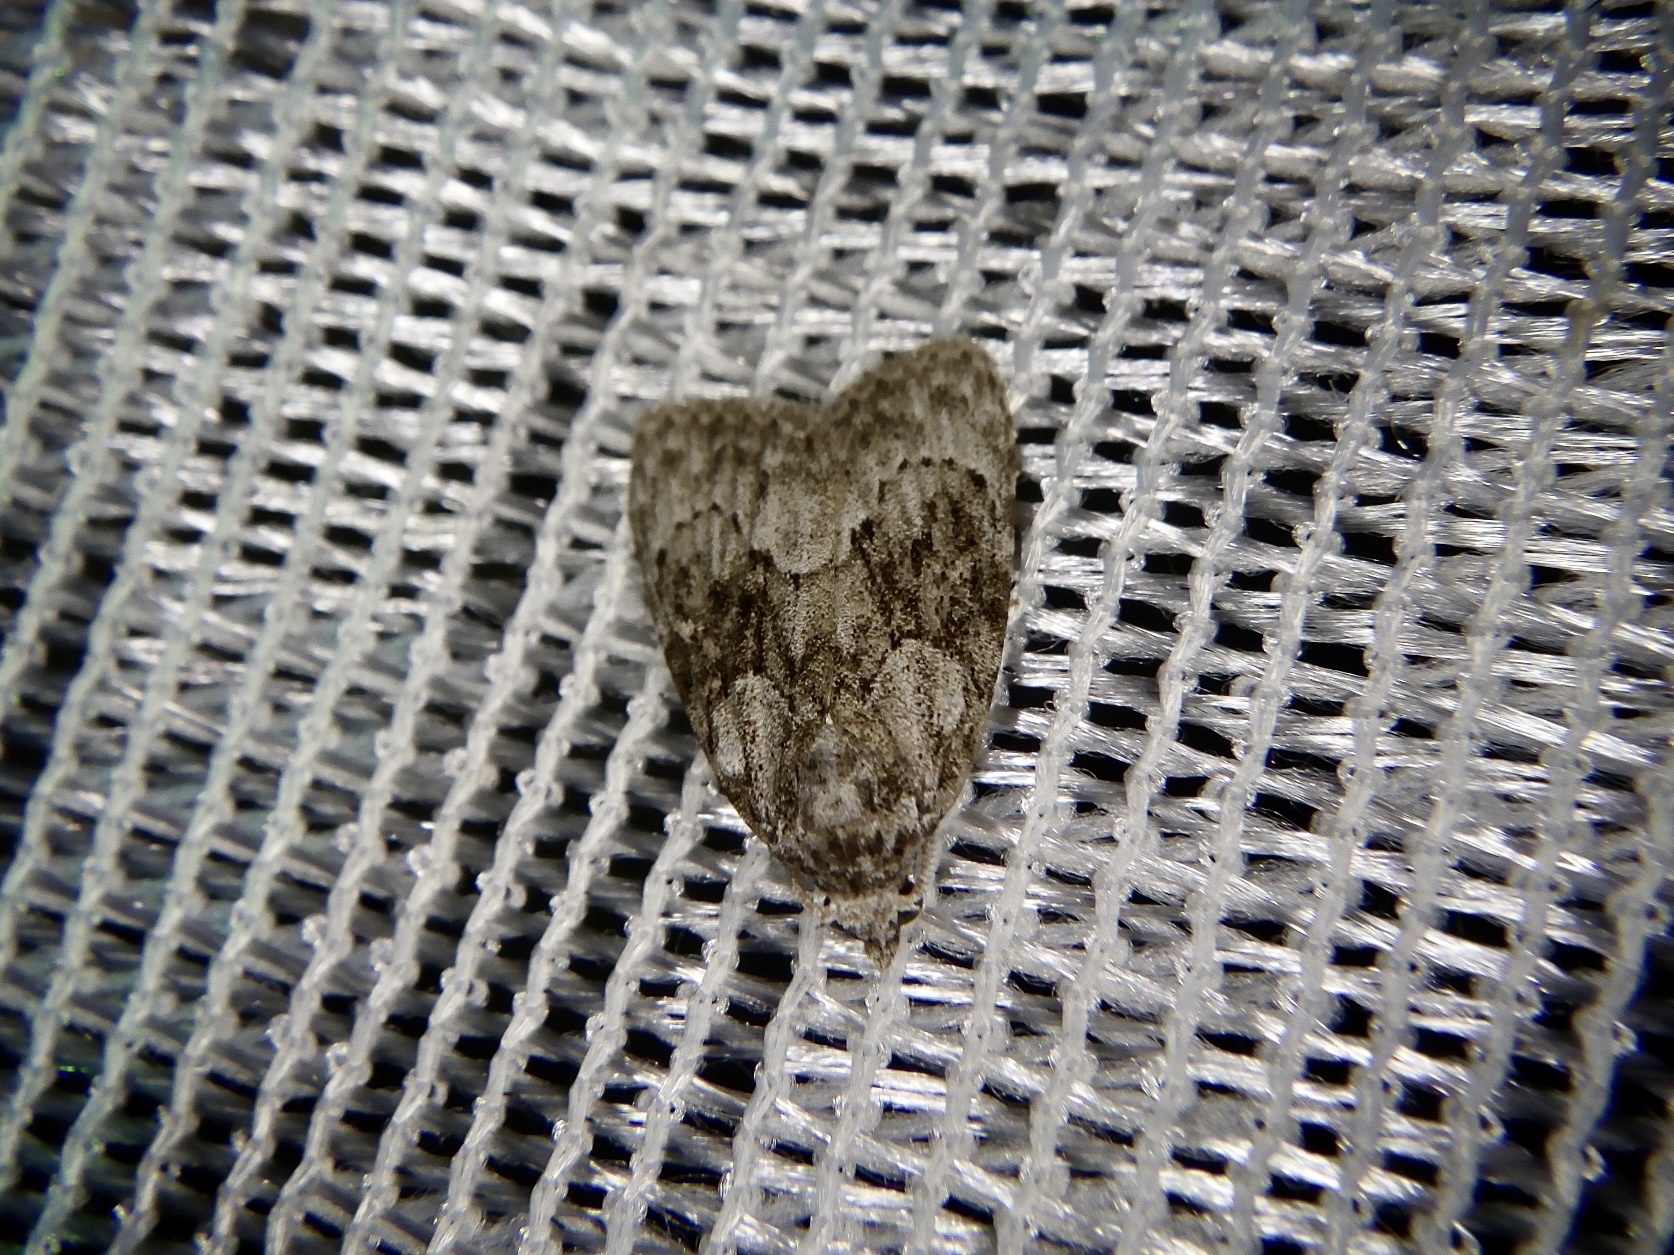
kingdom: Animalia
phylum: Arthropoda
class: Insecta
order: Lepidoptera
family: Nolidae
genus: Meganola
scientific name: Meganola fumosa
